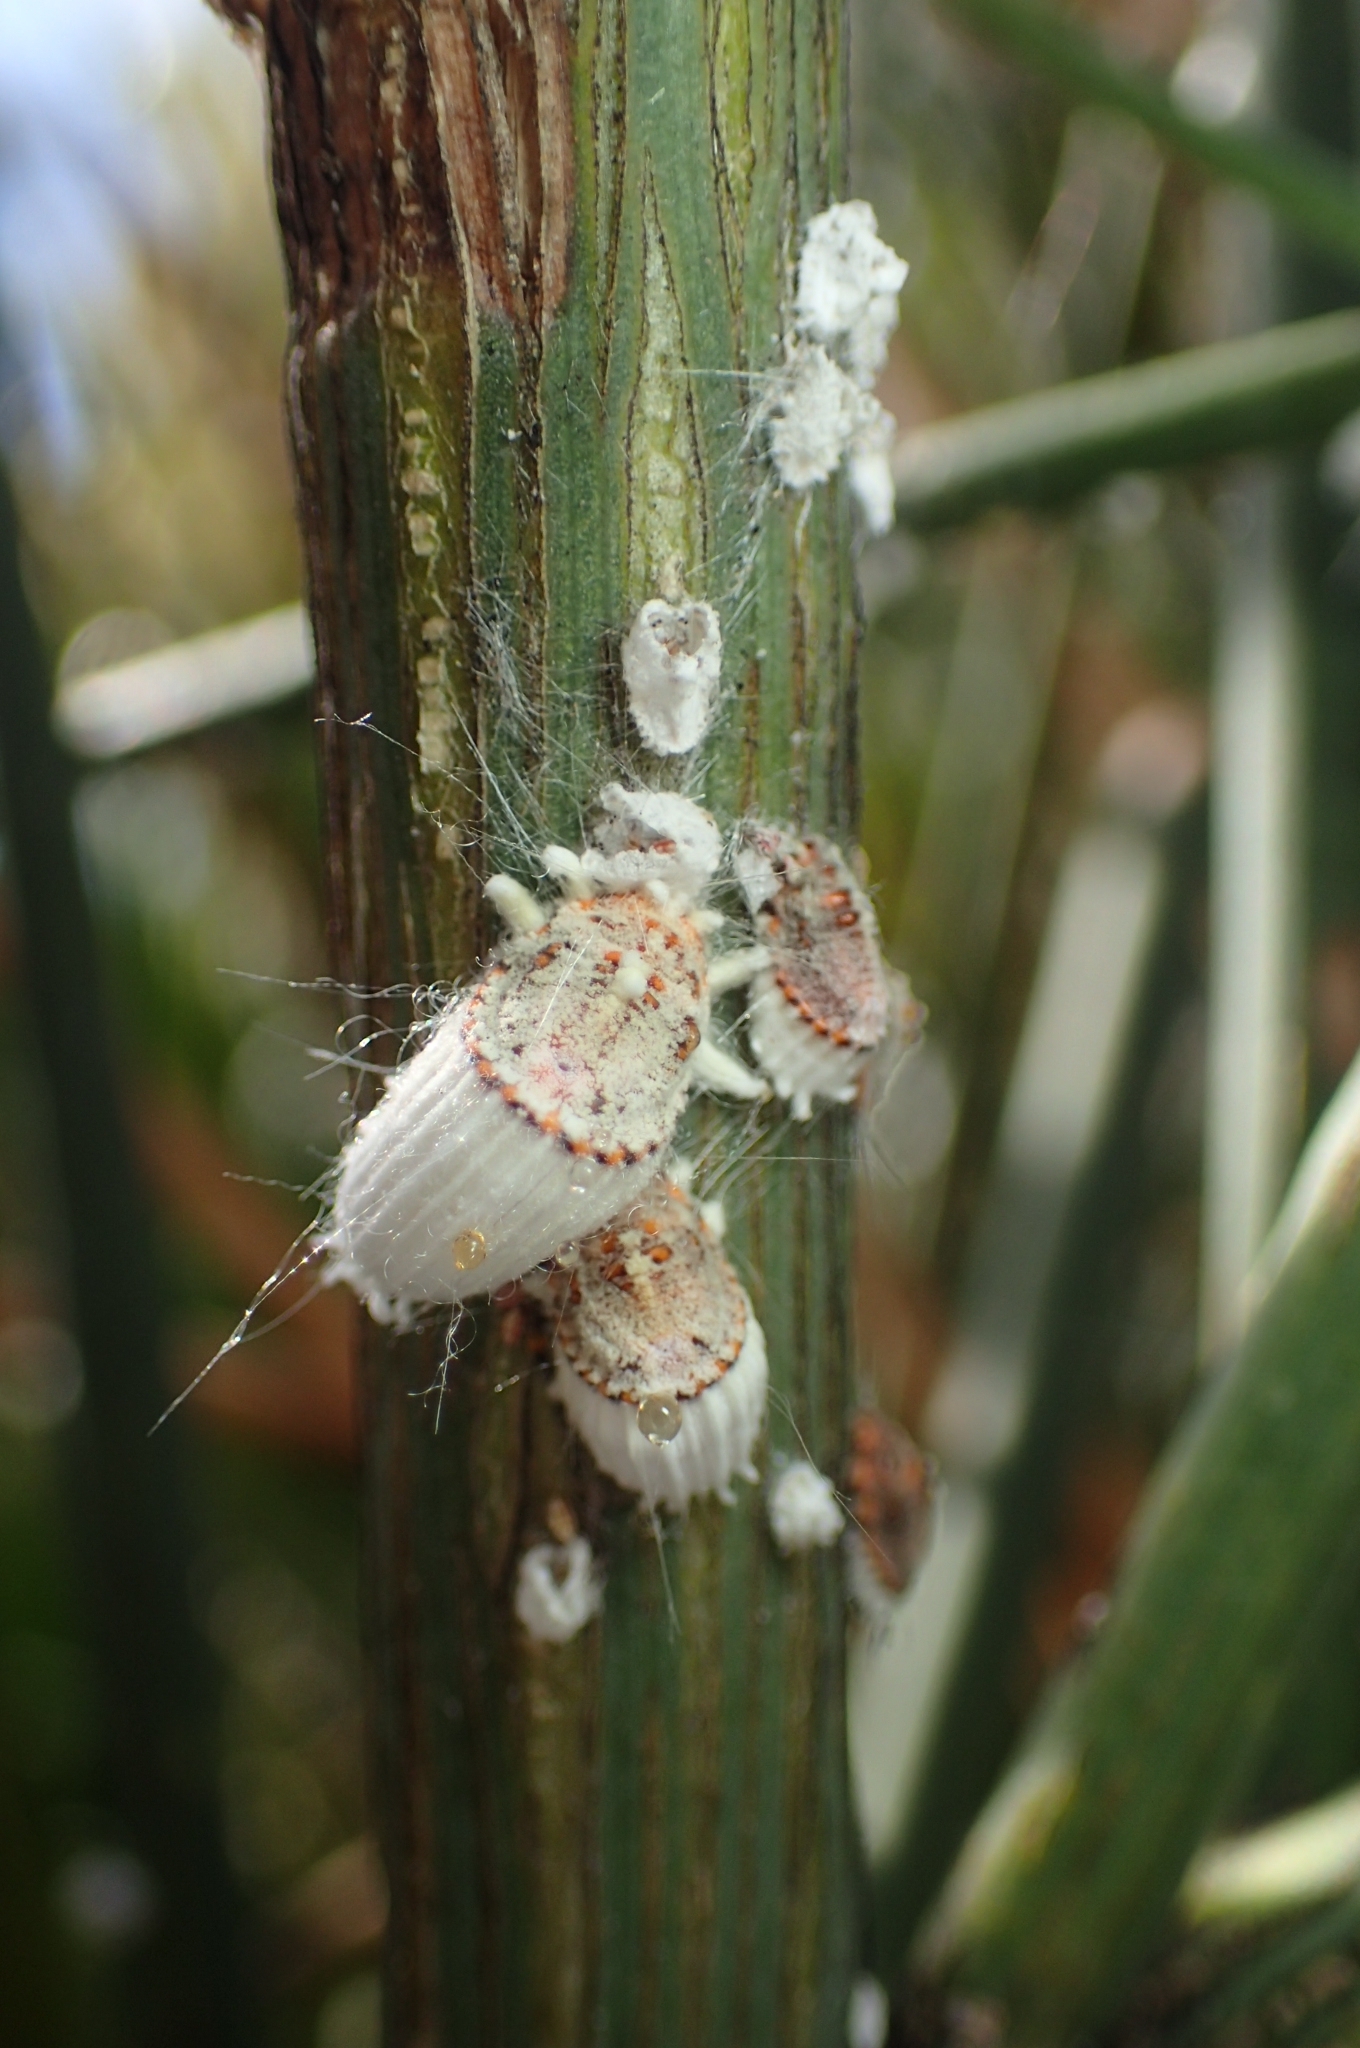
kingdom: Animalia
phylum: Arthropoda
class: Insecta
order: Hemiptera
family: Margarodidae
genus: Icerya
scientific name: Icerya purchasi
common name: Cottony cushion scale
